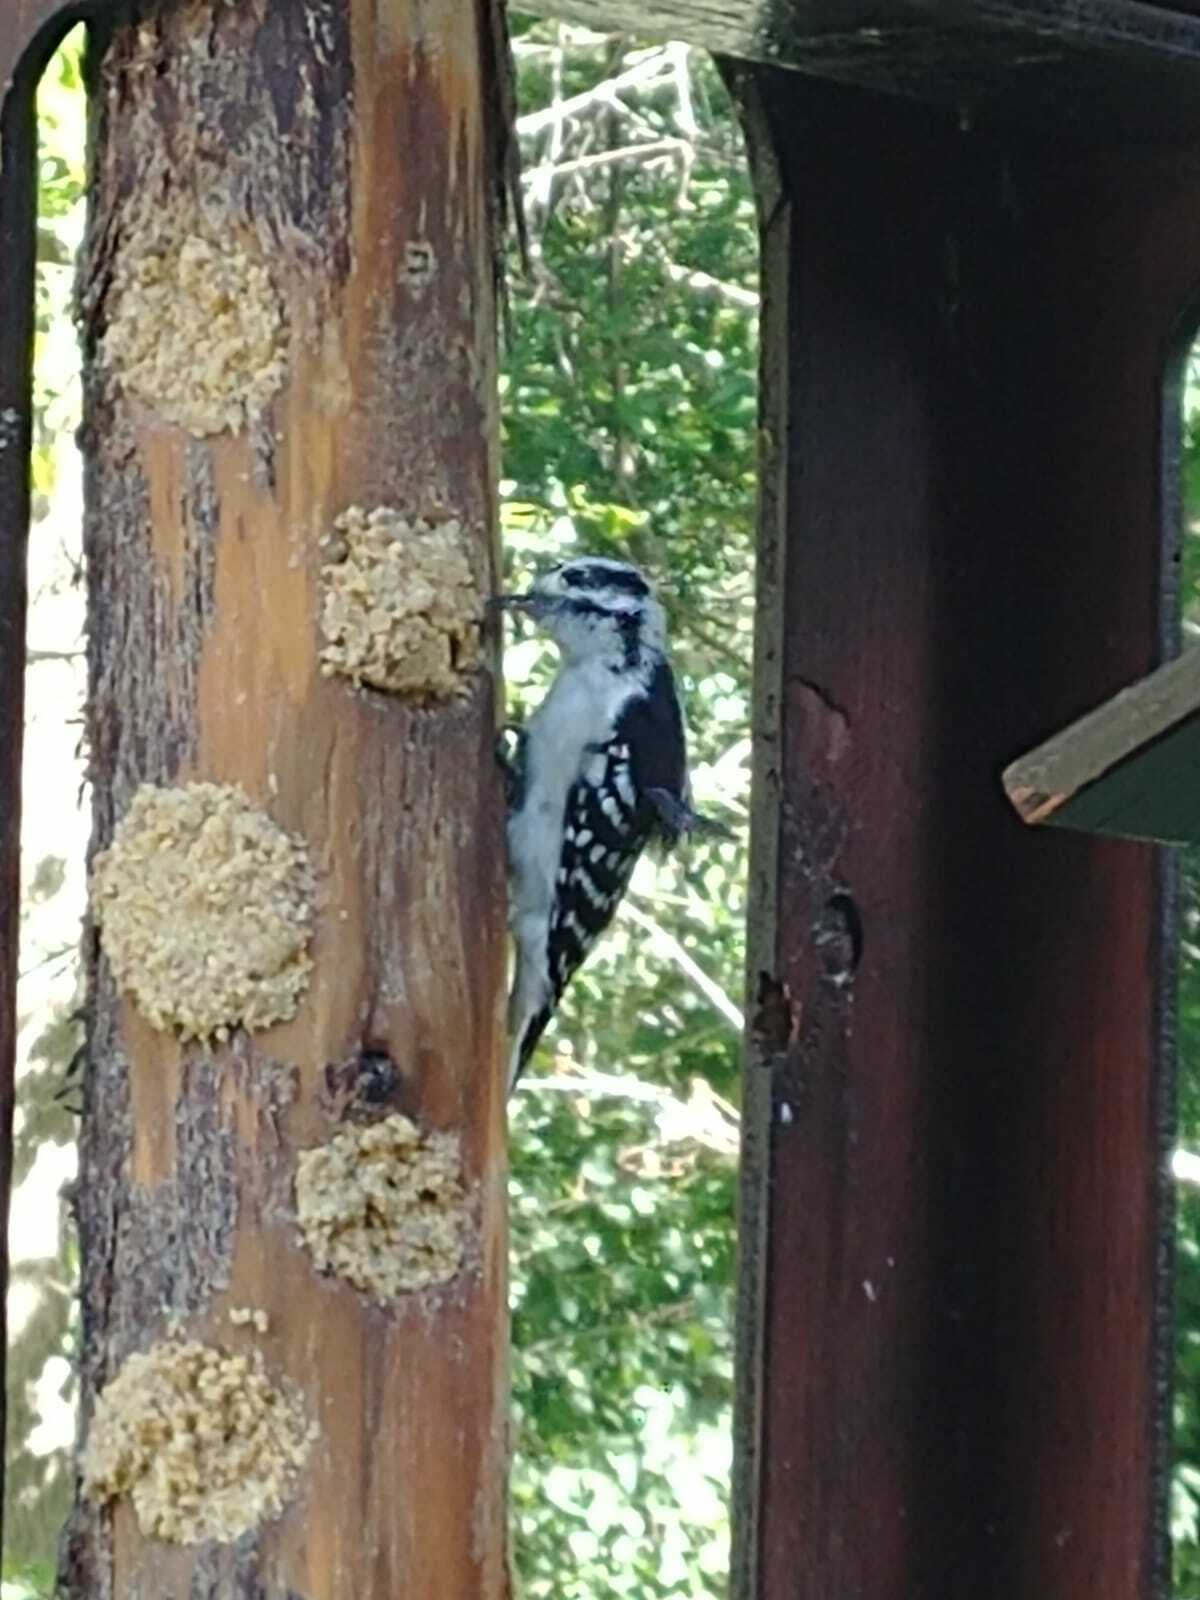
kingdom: Animalia
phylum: Chordata
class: Aves
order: Piciformes
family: Picidae
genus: Dryobates
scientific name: Dryobates pubescens
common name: Downy woodpecker
